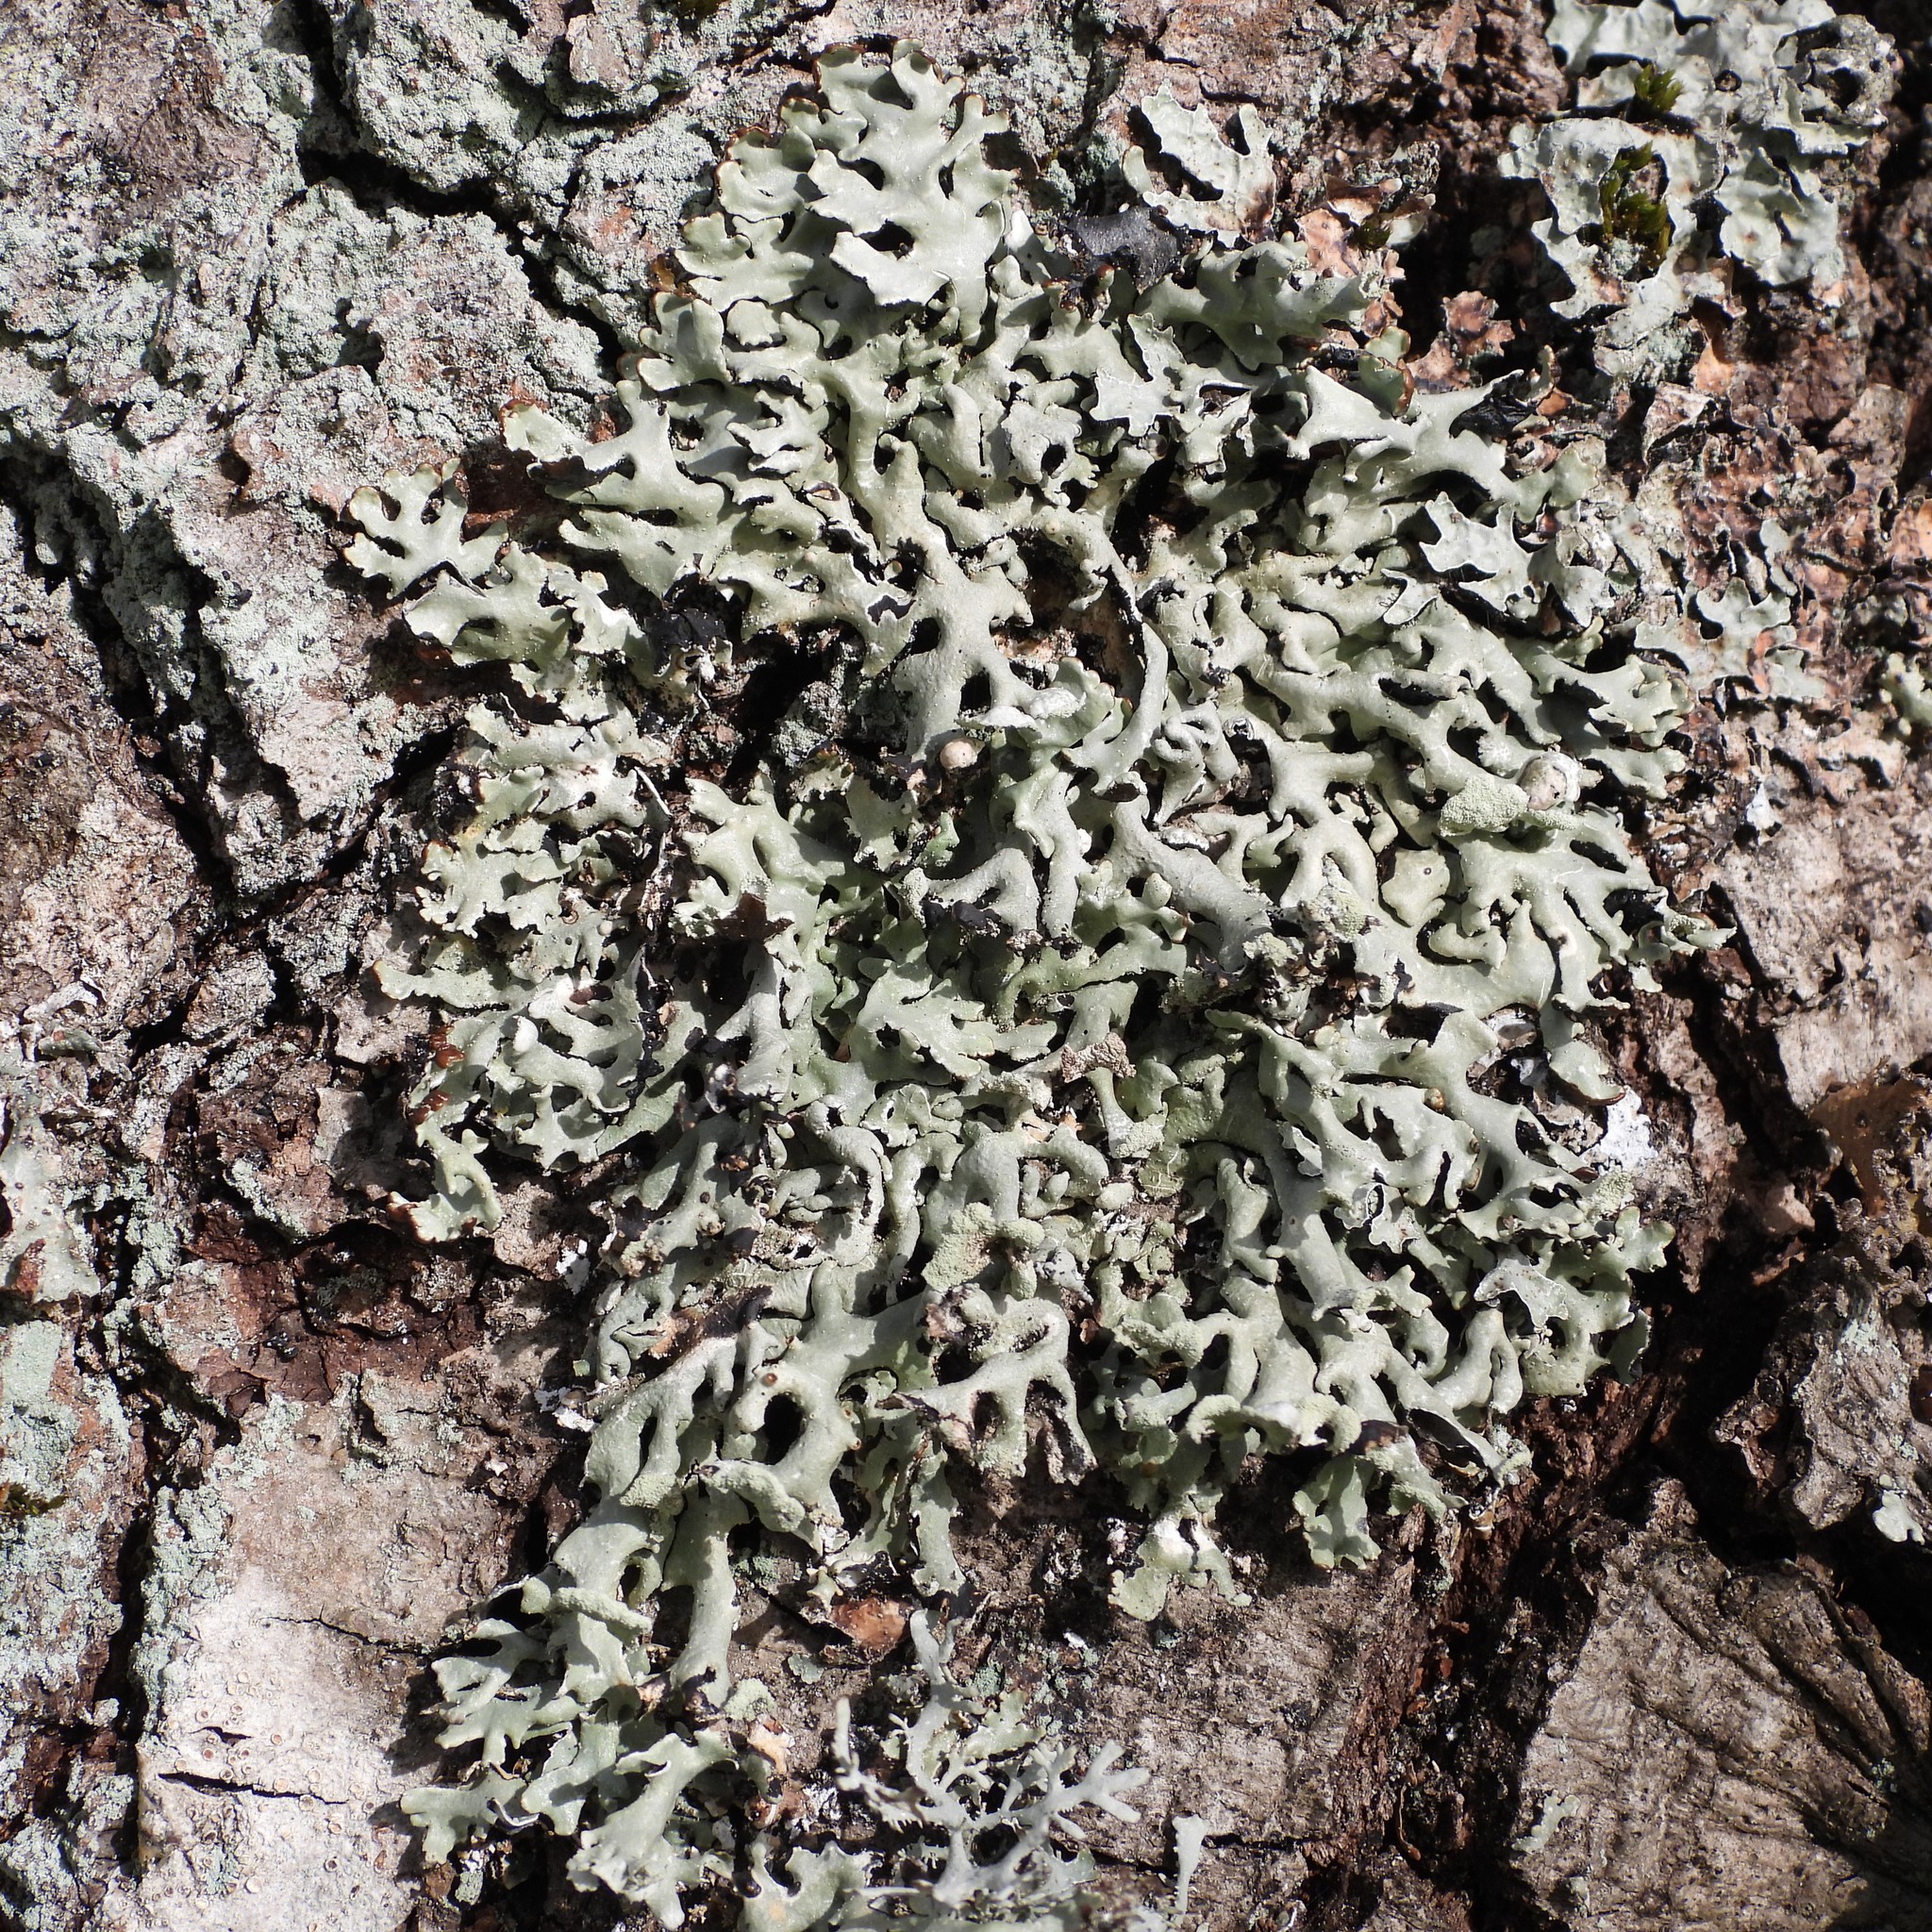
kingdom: Fungi
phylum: Ascomycota
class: Lecanoromycetes
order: Lecanorales
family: Parmeliaceae
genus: Hypogymnia
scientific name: Hypogymnia physodes
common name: Dark crottle
